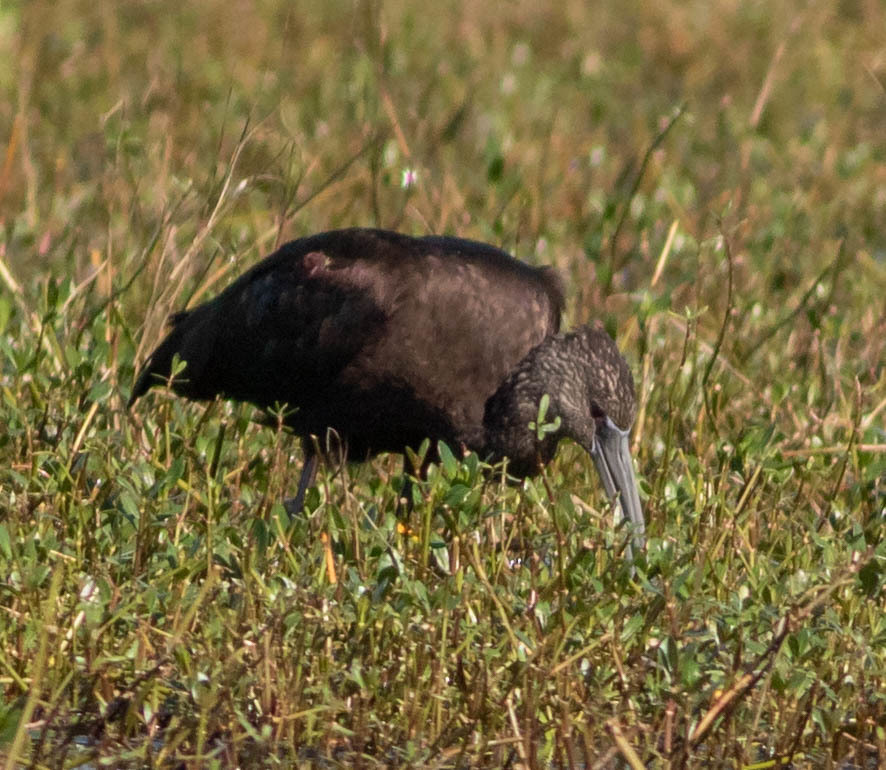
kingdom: Animalia
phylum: Chordata
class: Aves
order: Pelecaniformes
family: Threskiornithidae
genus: Plegadis
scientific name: Plegadis falcinellus
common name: Glossy ibis
